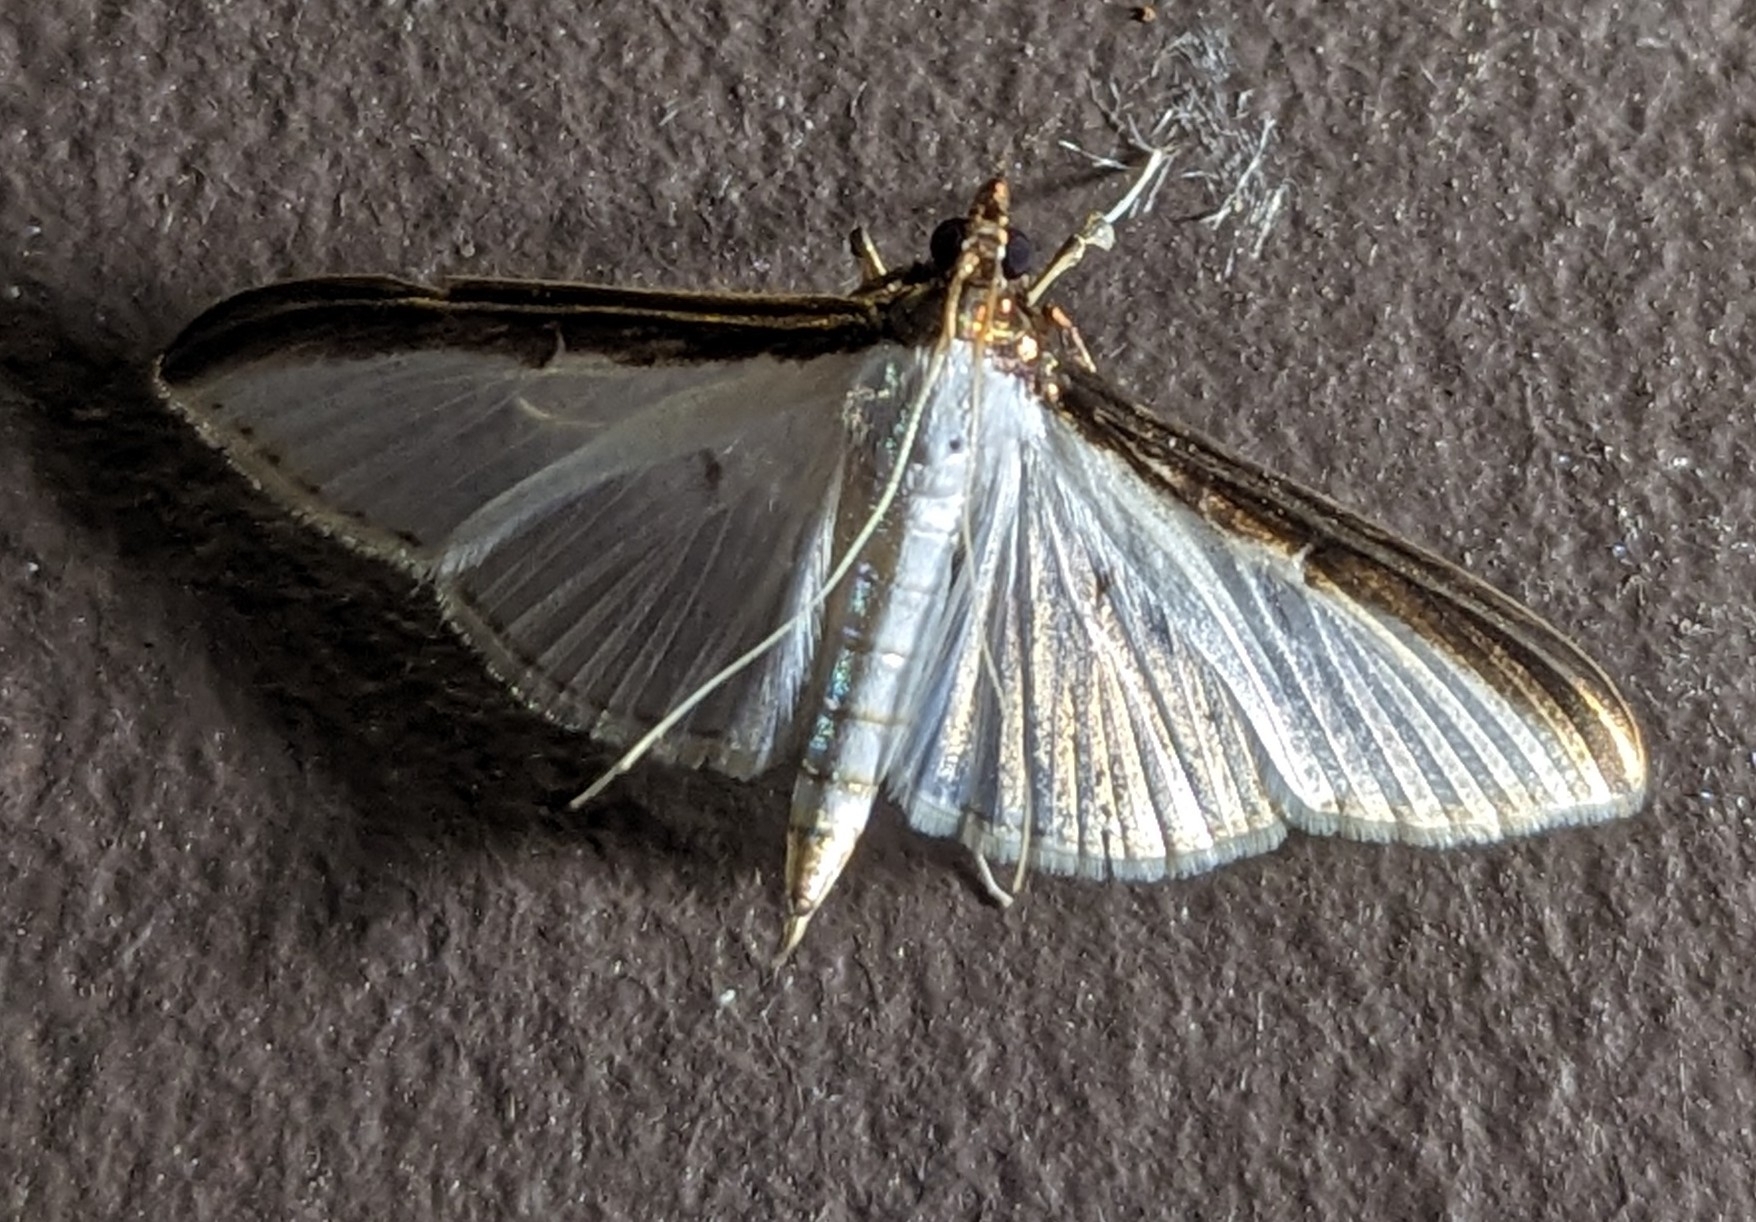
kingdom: Animalia
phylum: Arthropoda
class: Insecta
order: Lepidoptera
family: Crambidae
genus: Cydalima
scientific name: Cydalima laticostalis
